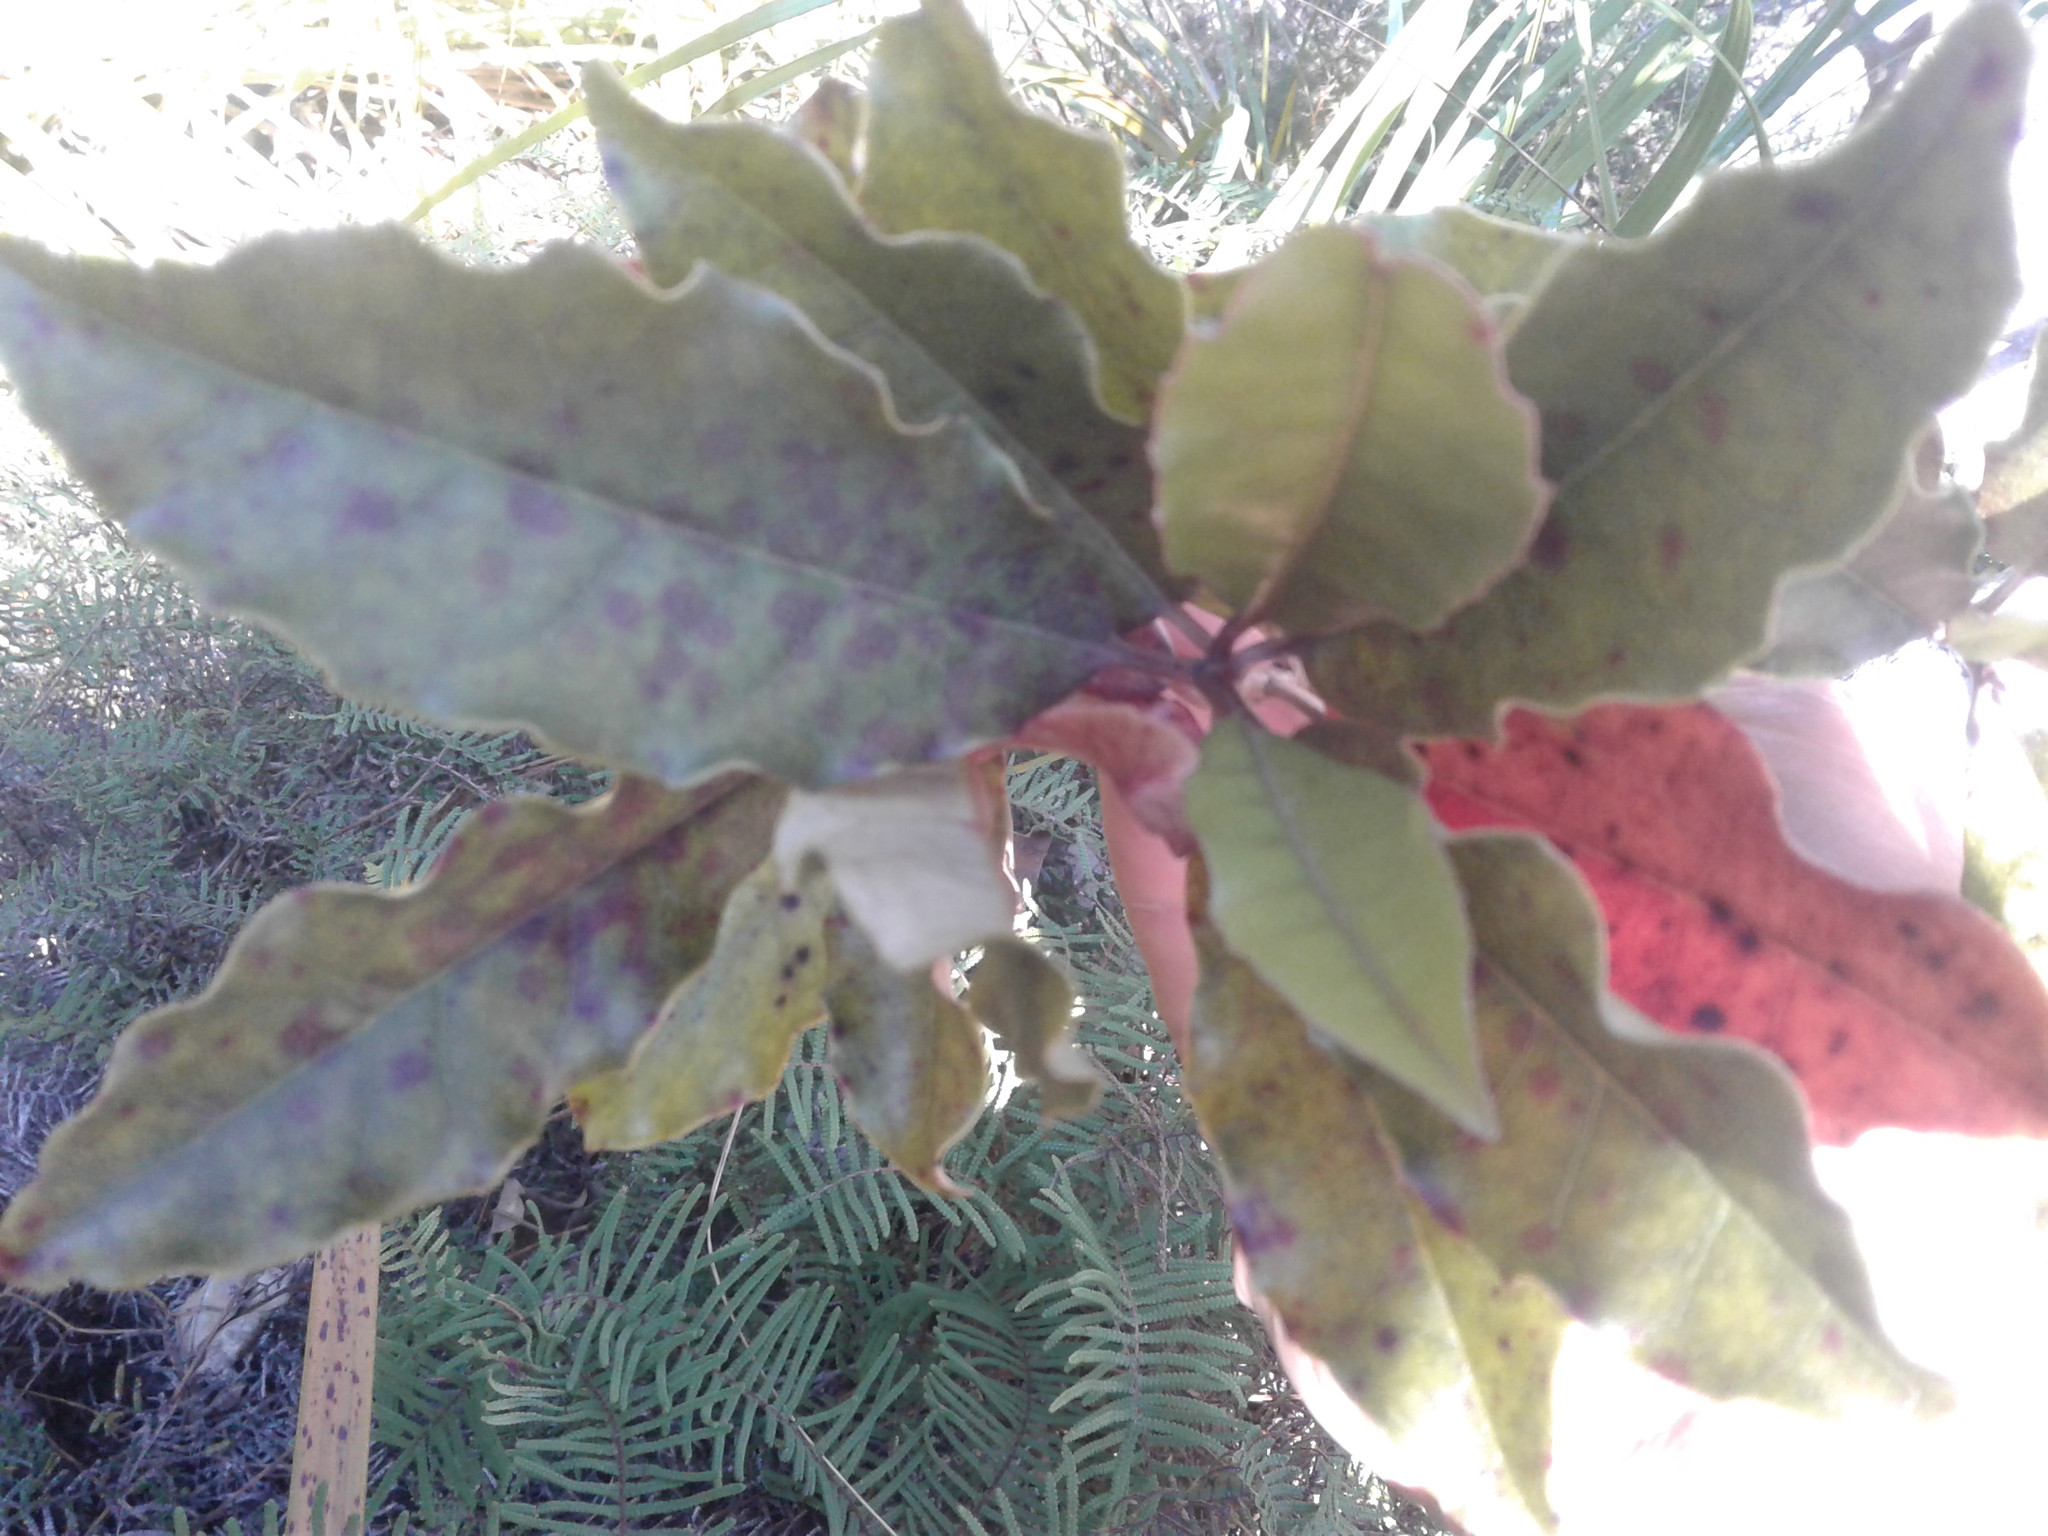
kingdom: Plantae
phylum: Tracheophyta
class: Magnoliopsida
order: Paracryphiales
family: Paracryphiaceae
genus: Quintinia
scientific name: Quintinia serrata
